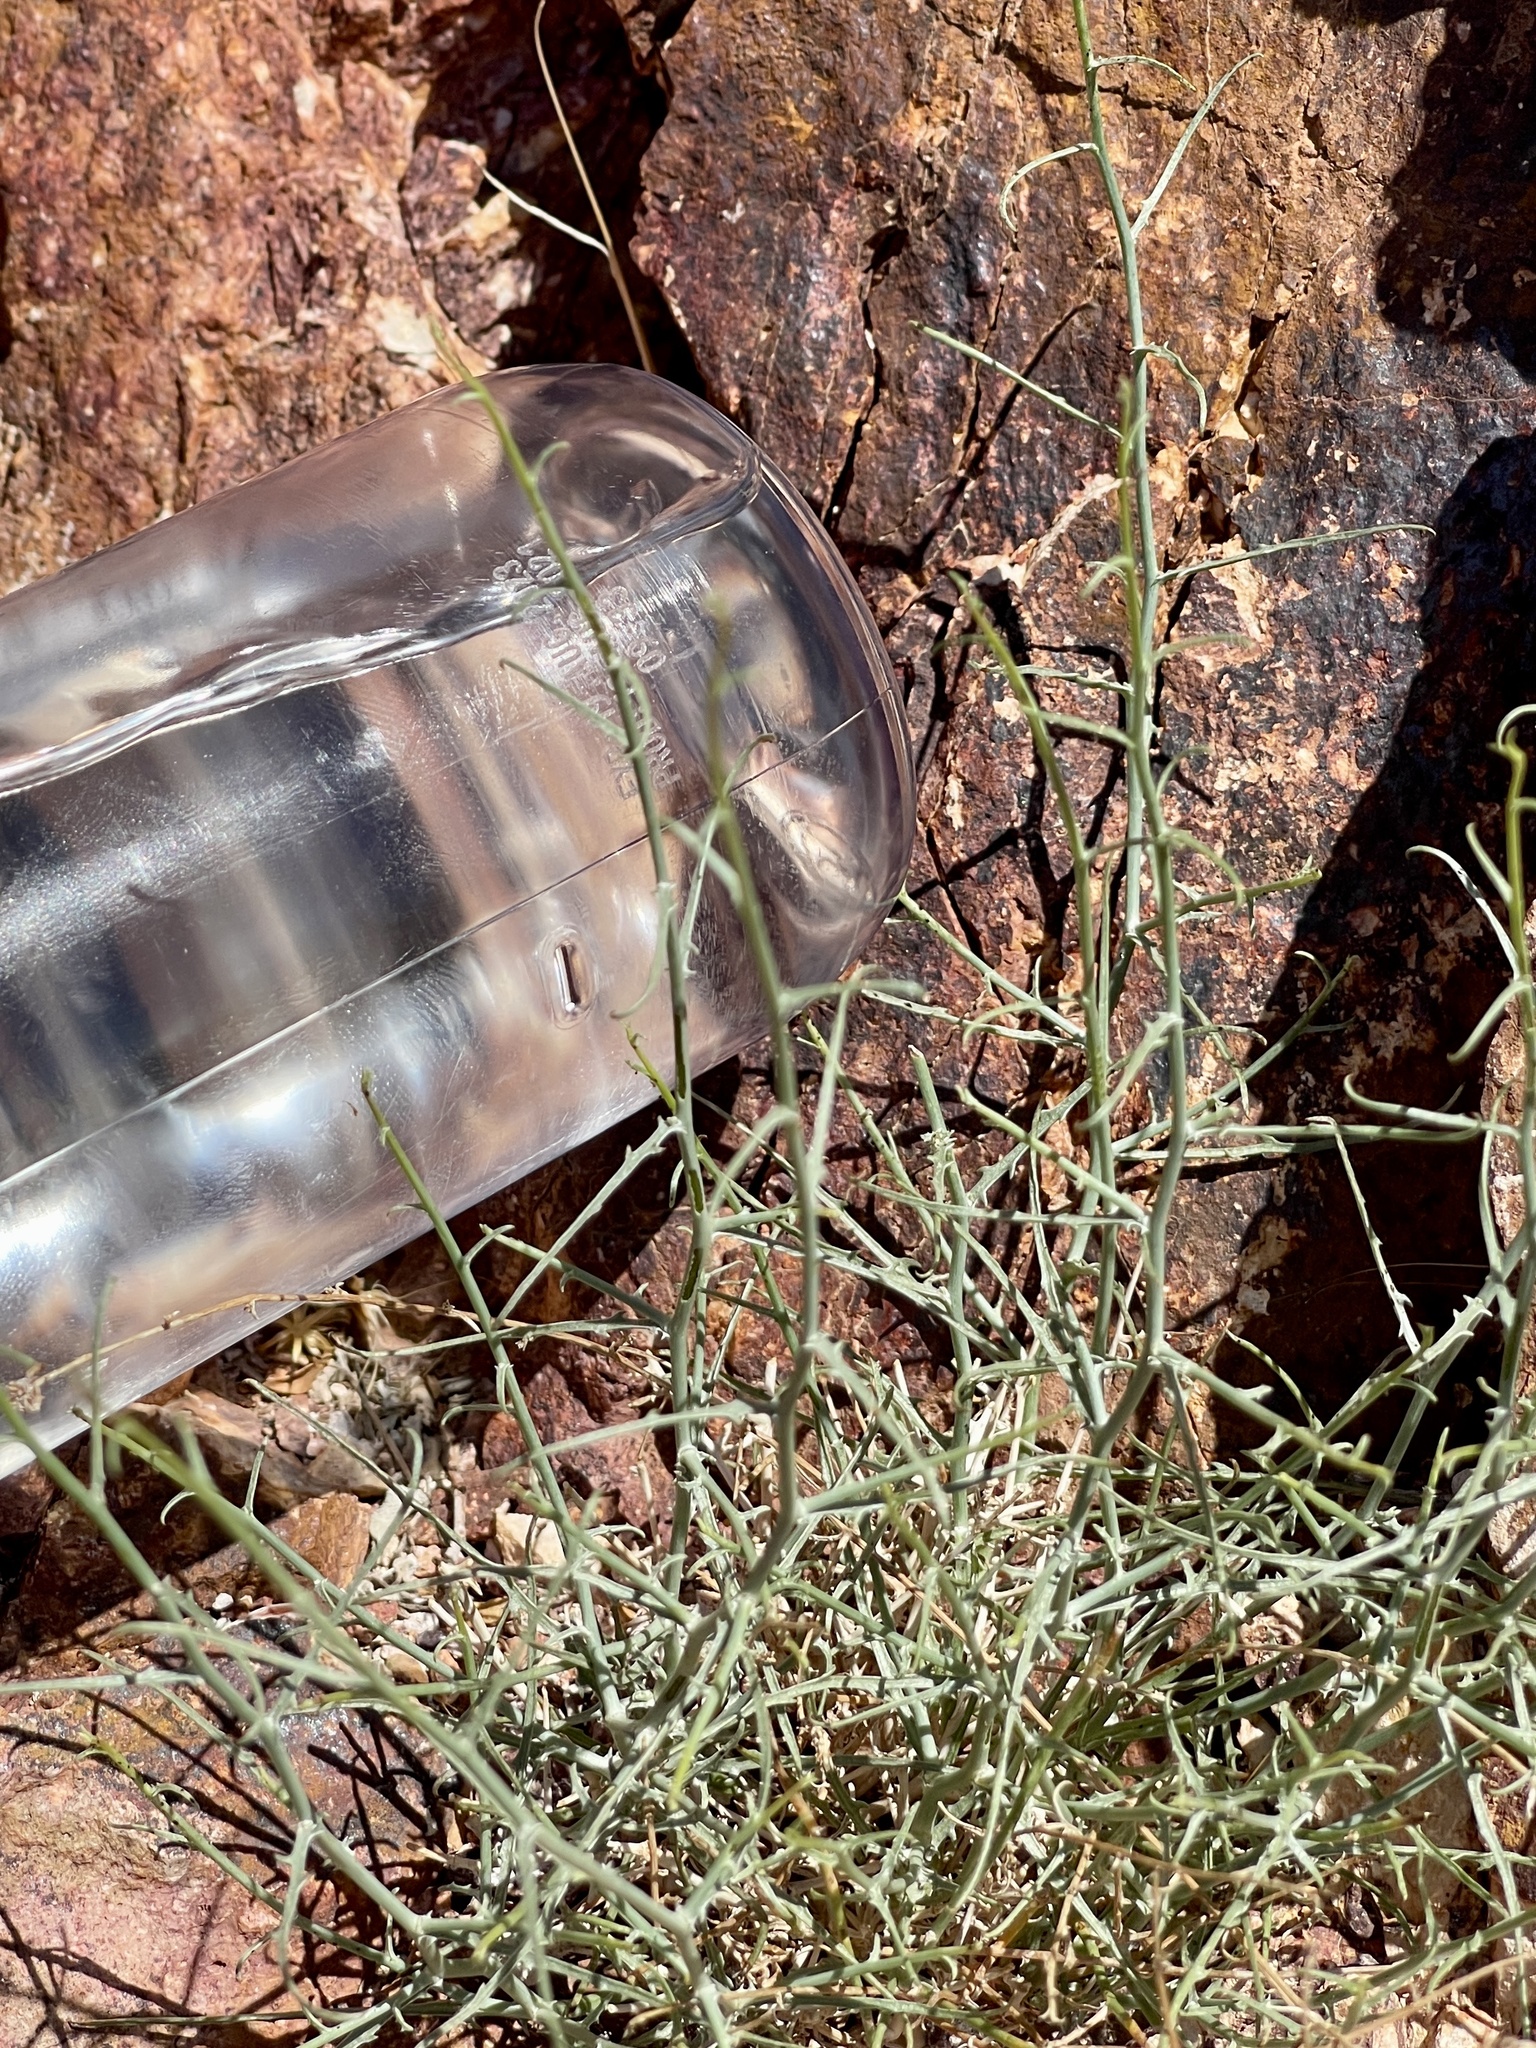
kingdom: Plantae
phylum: Tracheophyta
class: Magnoliopsida
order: Asterales
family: Asteraceae
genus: Stephanomeria
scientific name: Stephanomeria pauciflora
